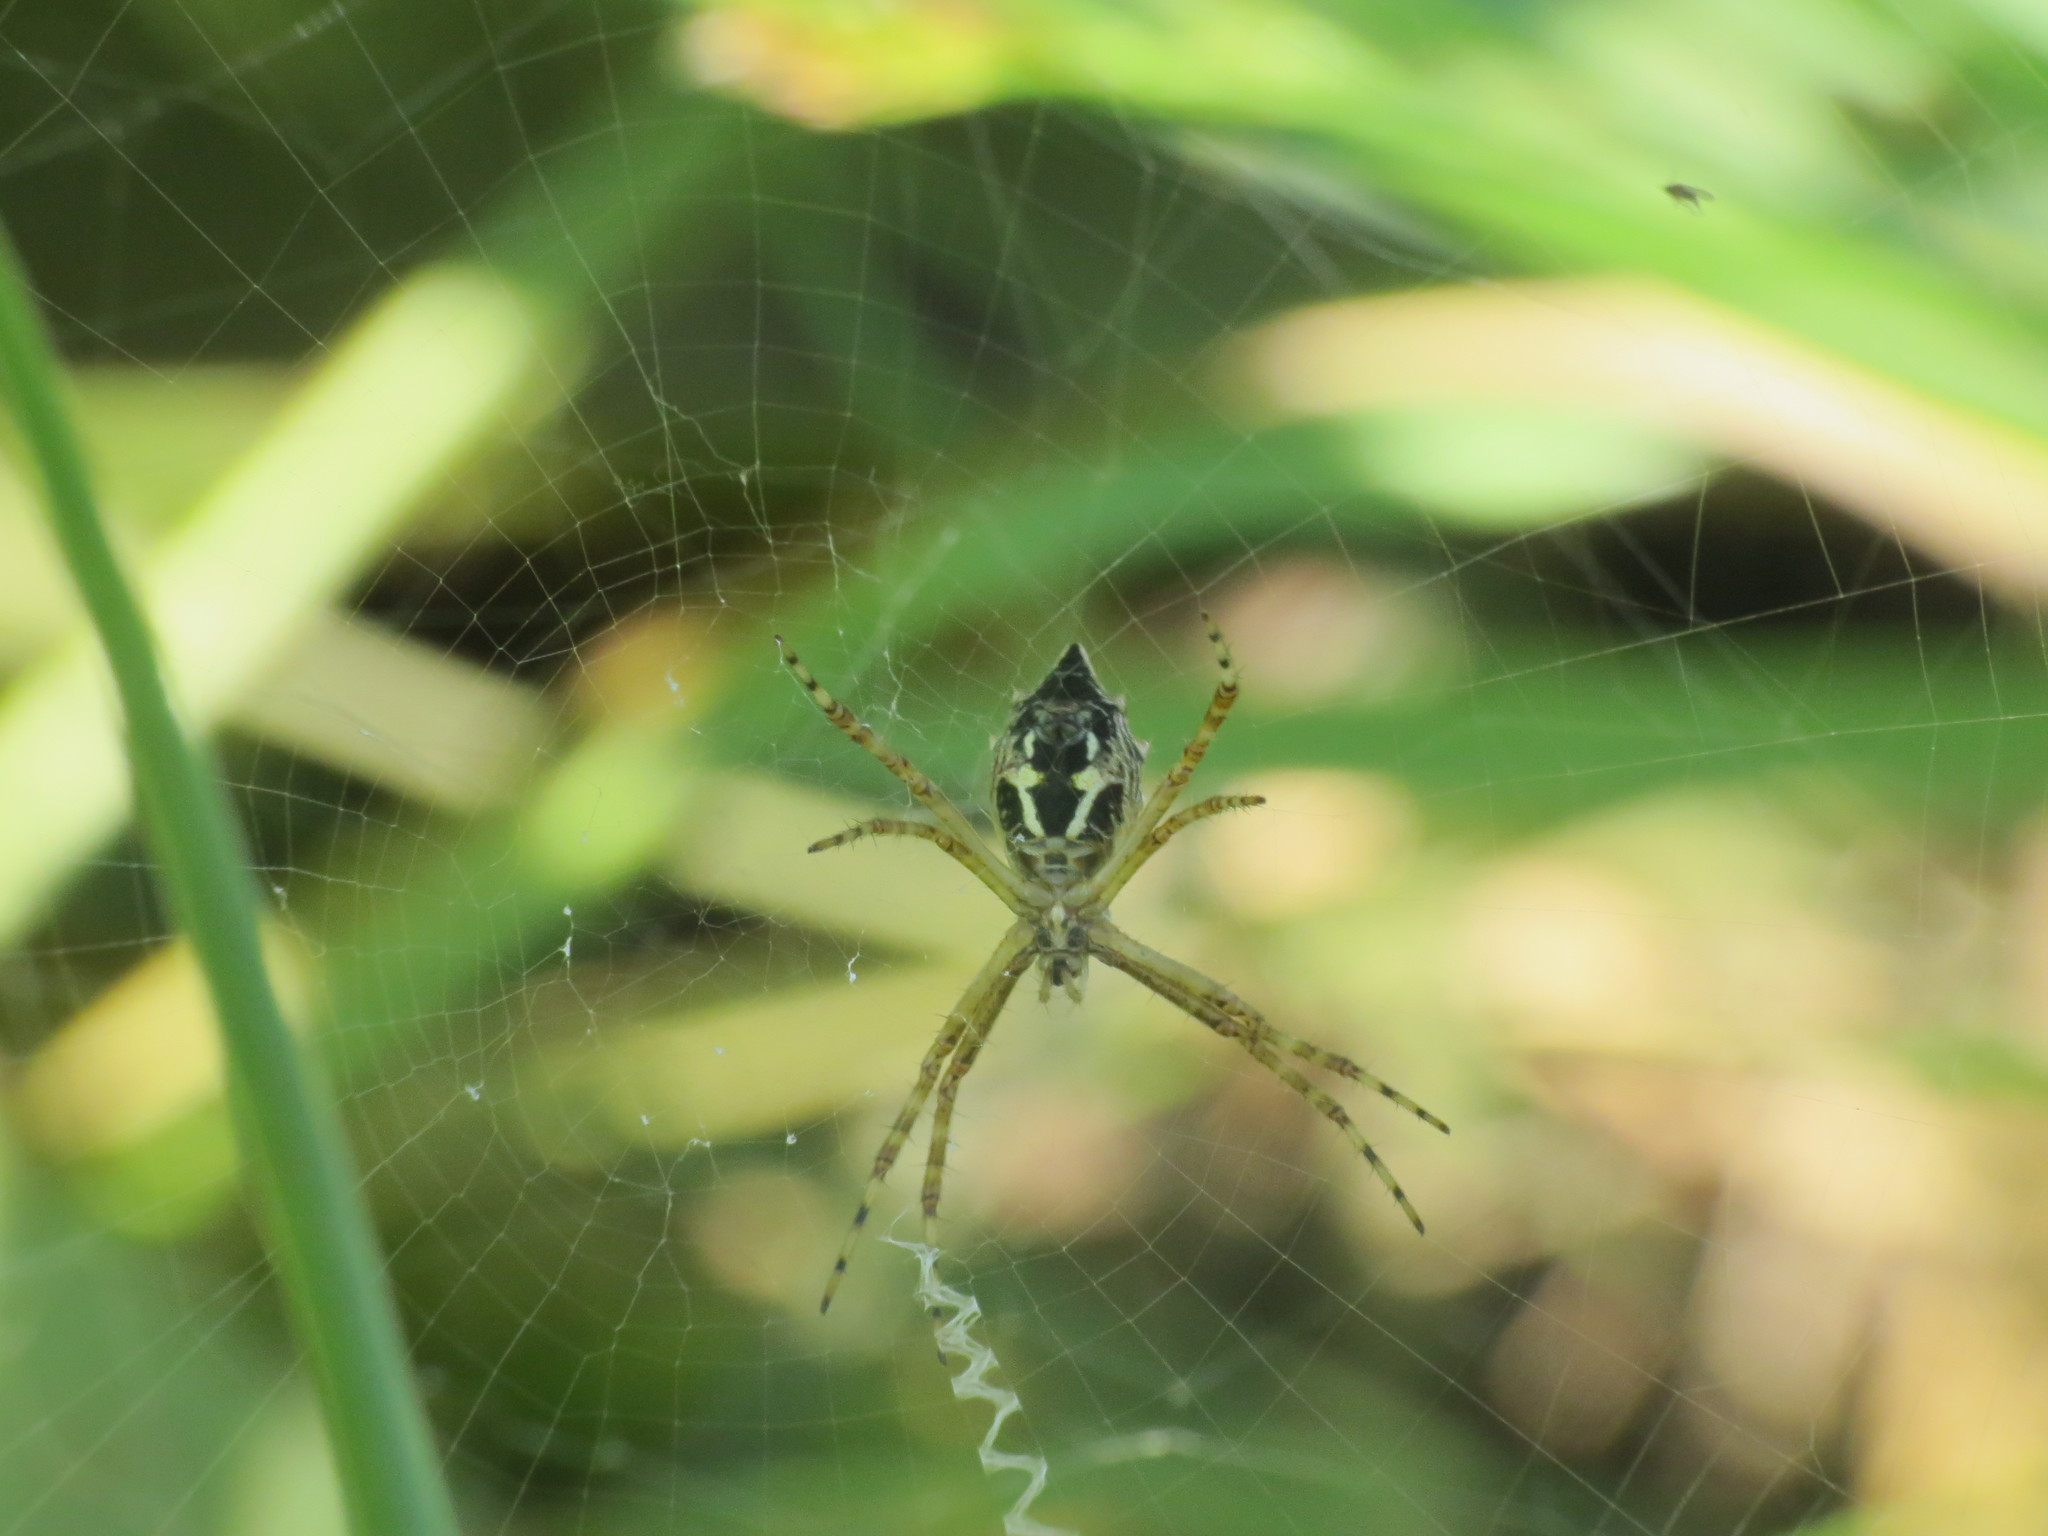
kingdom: Animalia
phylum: Arthropoda
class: Arachnida
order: Araneae
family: Araneidae
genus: Argiope
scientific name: Argiope argentata
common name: Orb weavers
